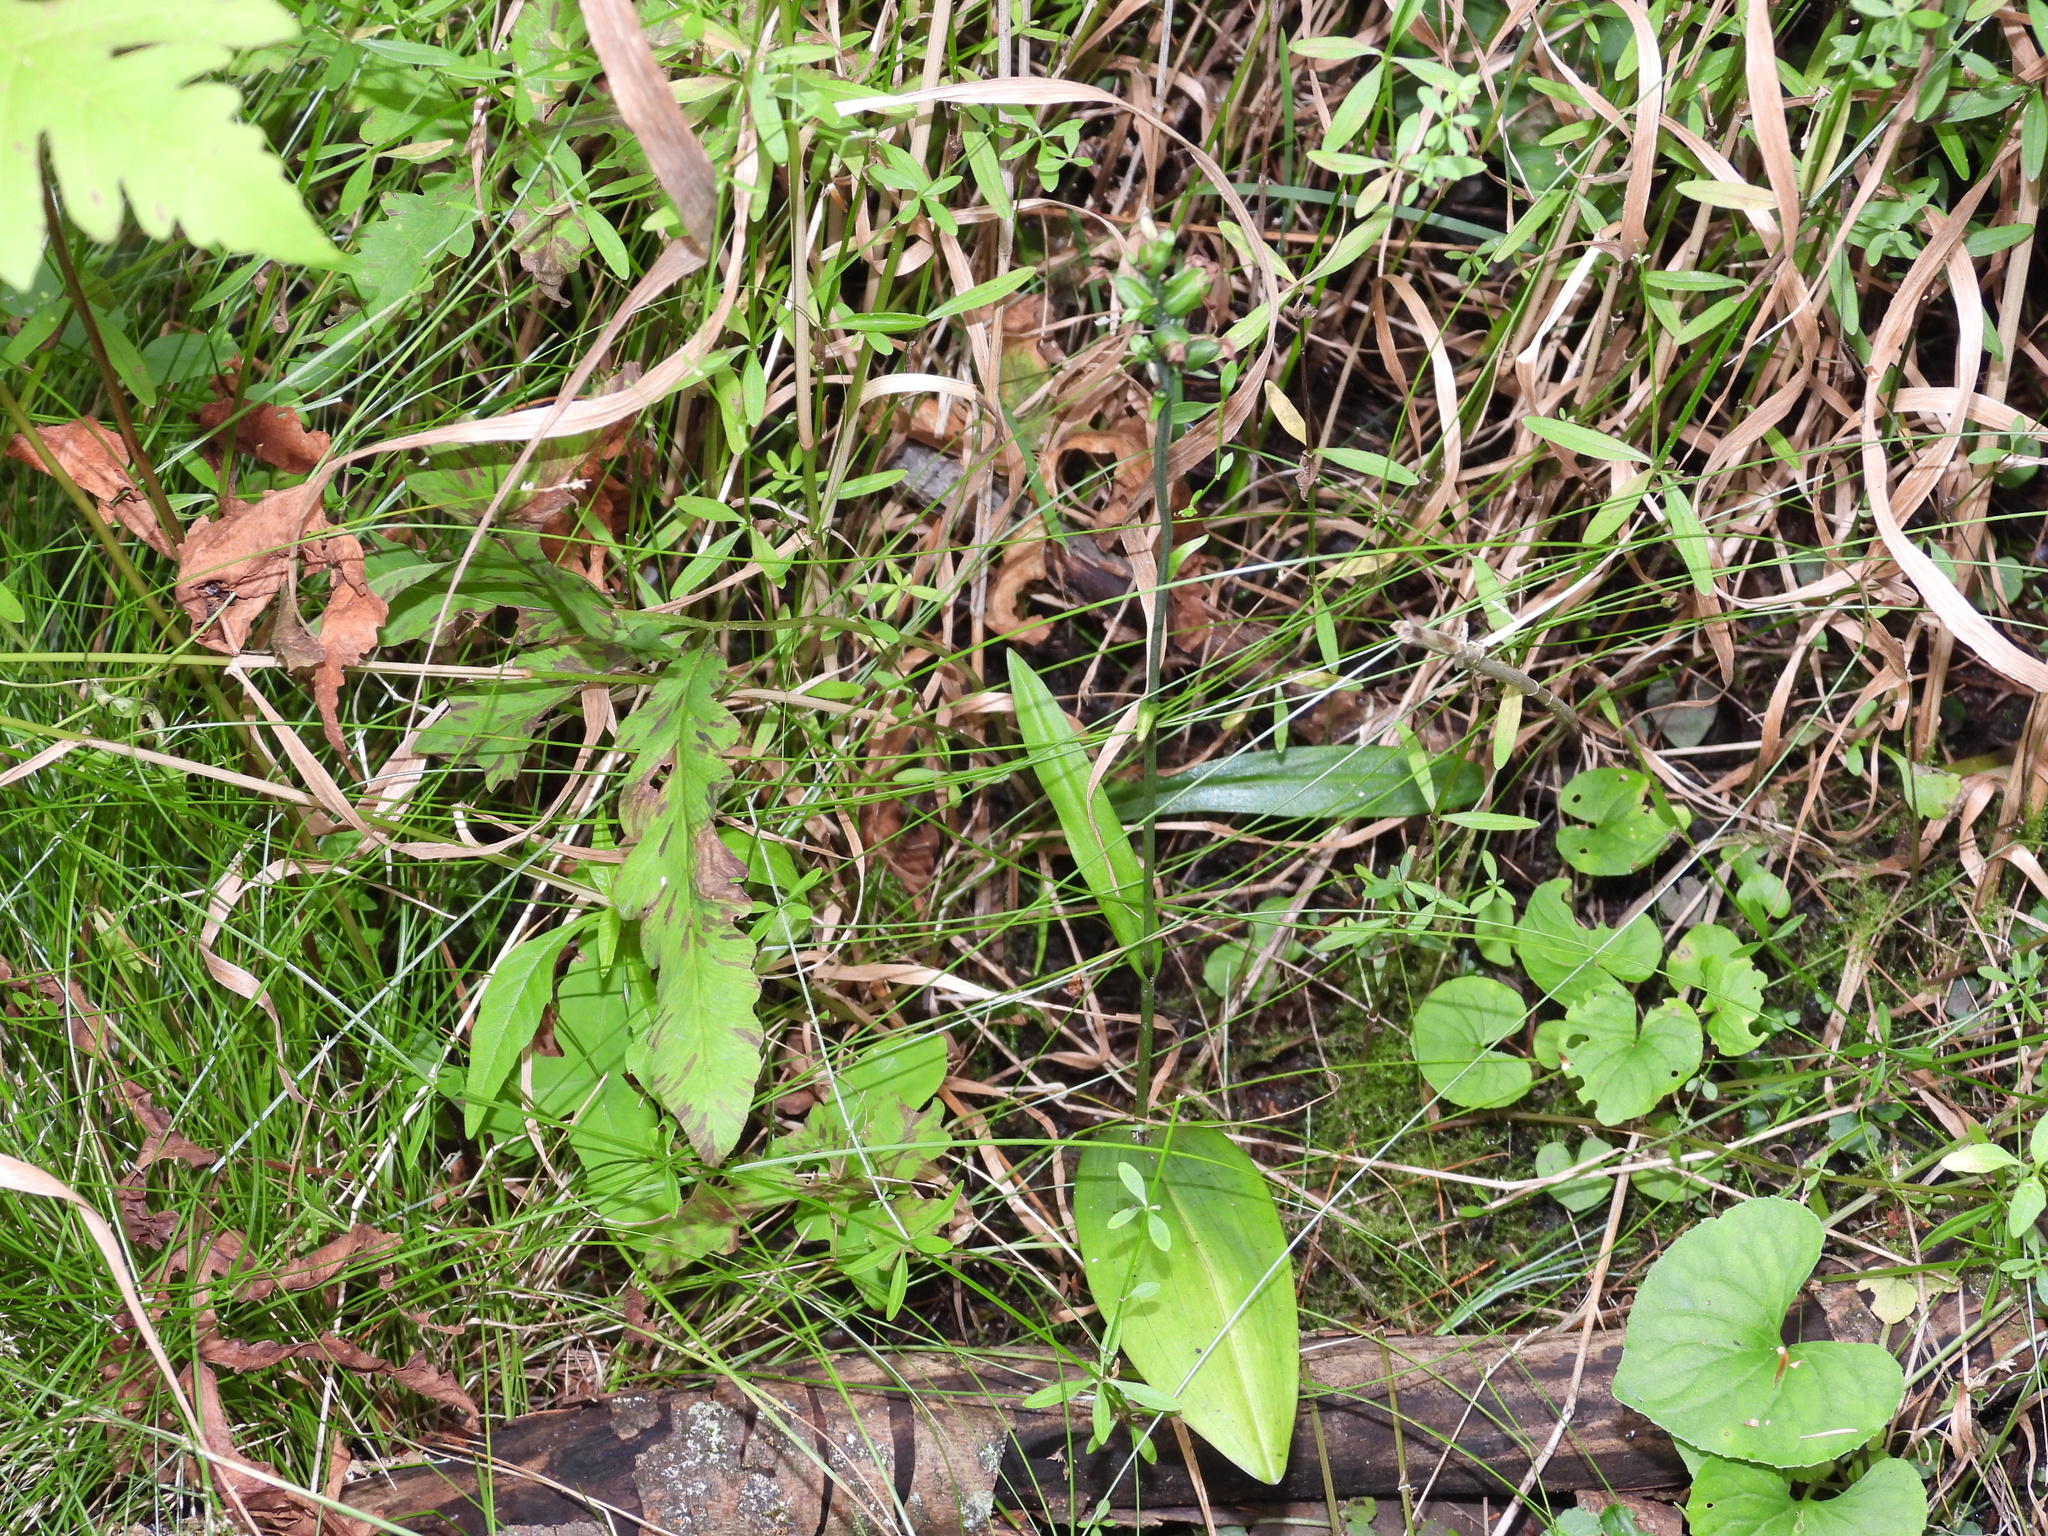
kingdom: Plantae
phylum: Tracheophyta
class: Liliopsida
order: Asparagales
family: Orchidaceae
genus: Platanthera
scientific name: Platanthera clavellata
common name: Club-spur orchid
